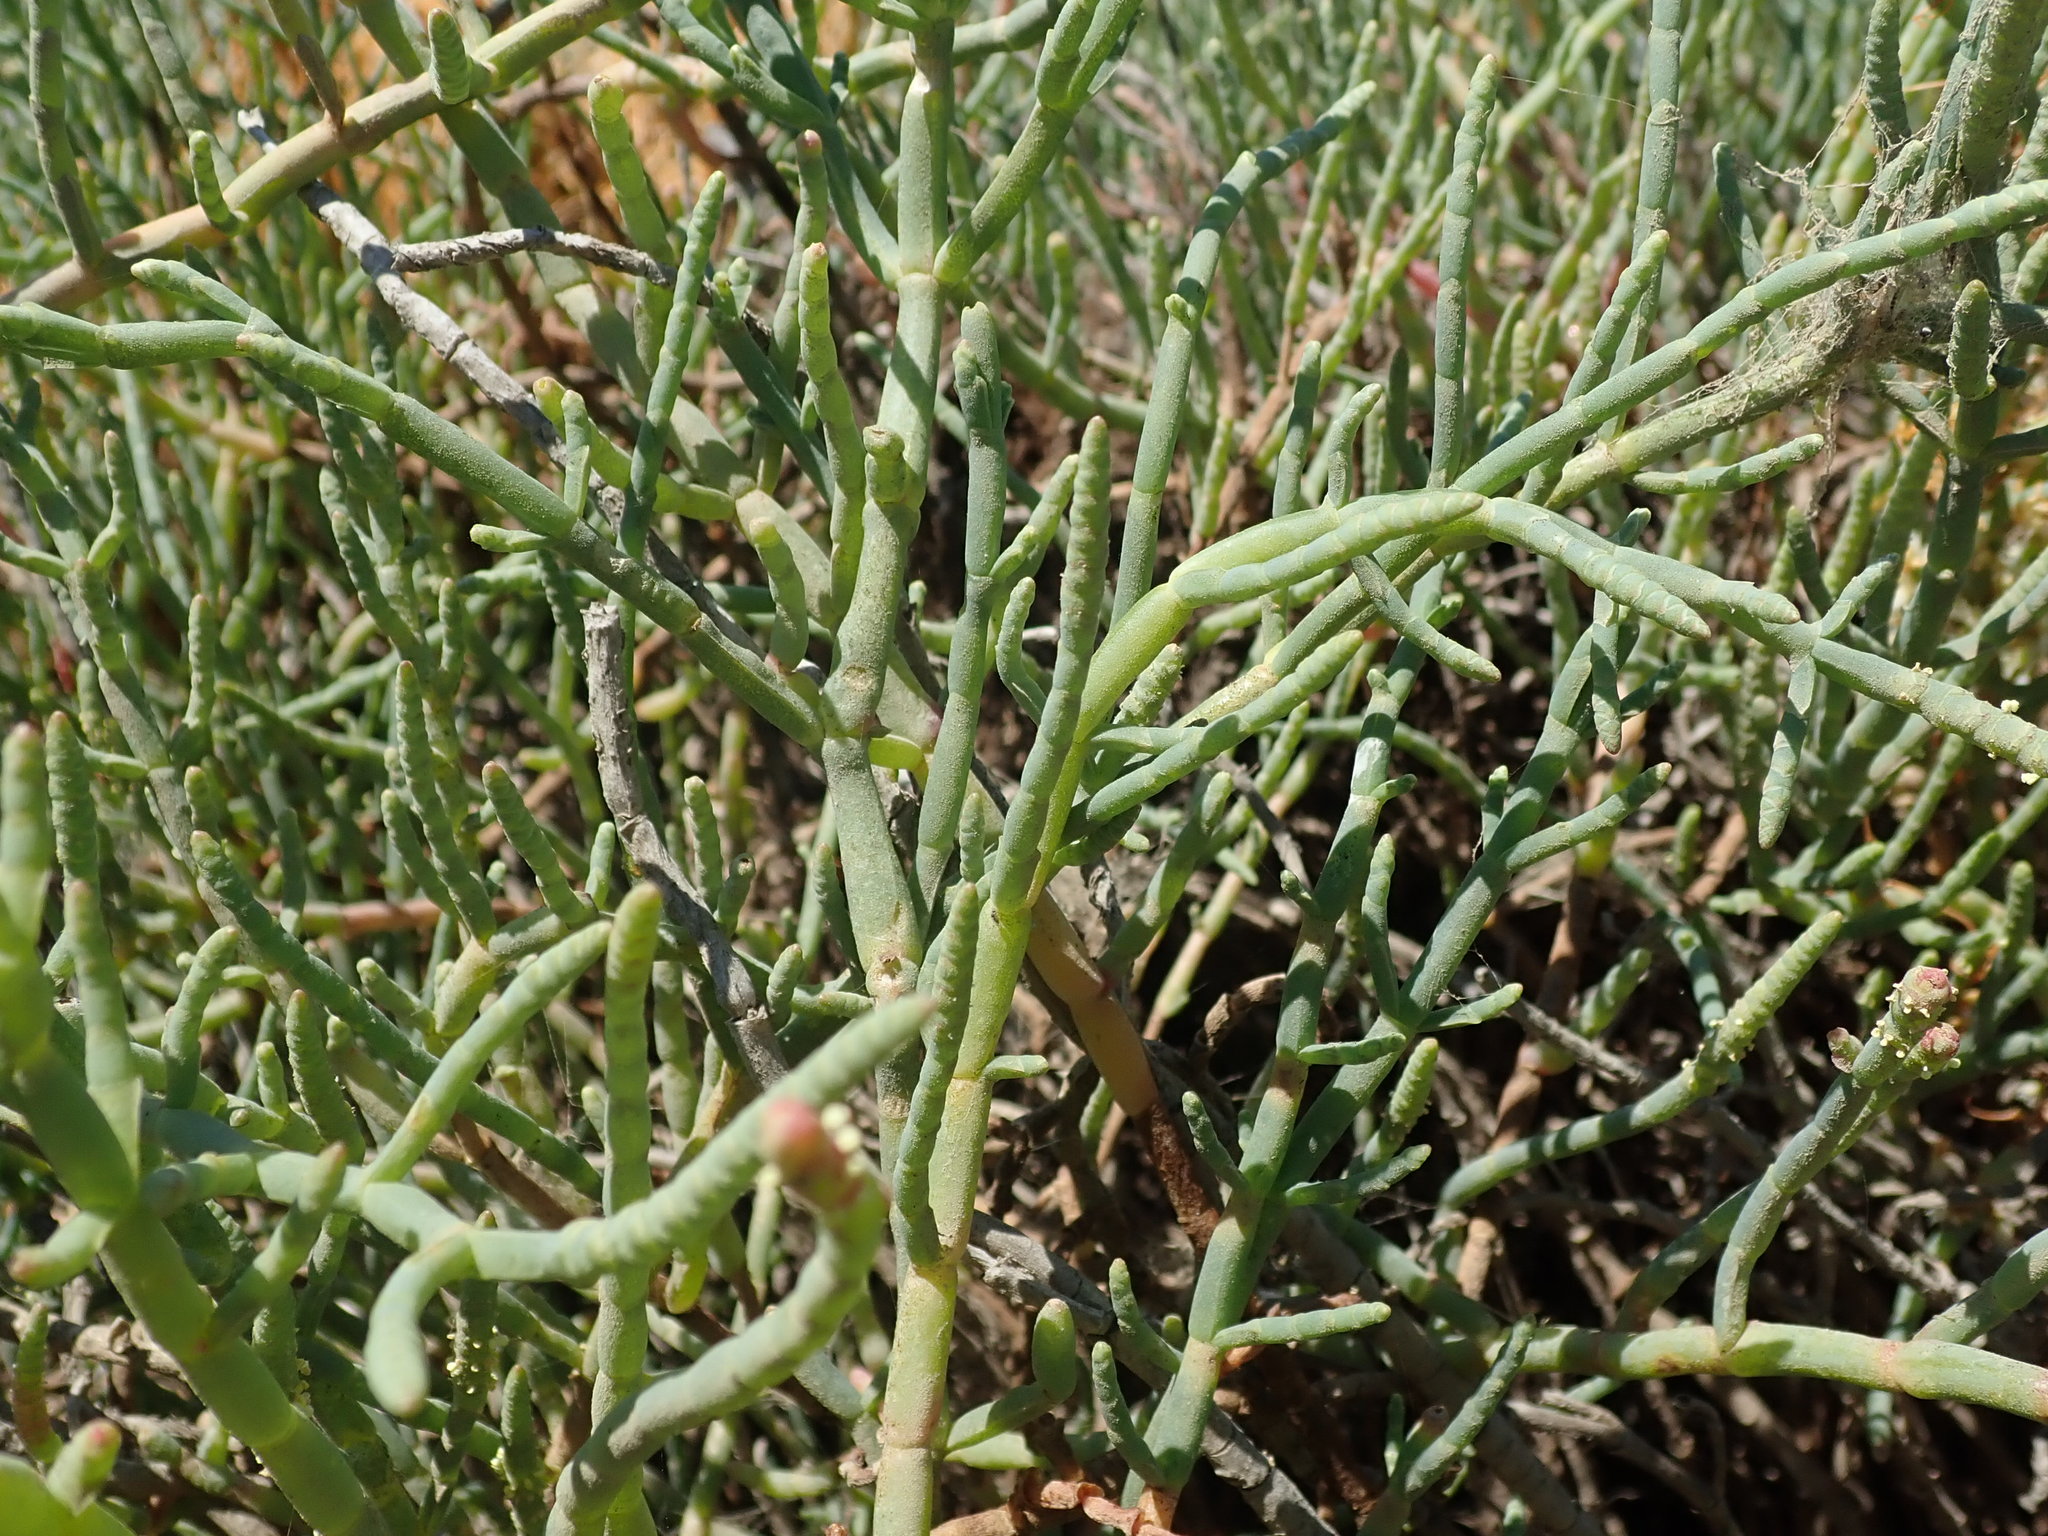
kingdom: Plantae
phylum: Tracheophyta
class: Magnoliopsida
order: Caryophyllales
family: Amaranthaceae
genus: Salicornia
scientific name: Salicornia pacifica
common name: Pacific glasswort
